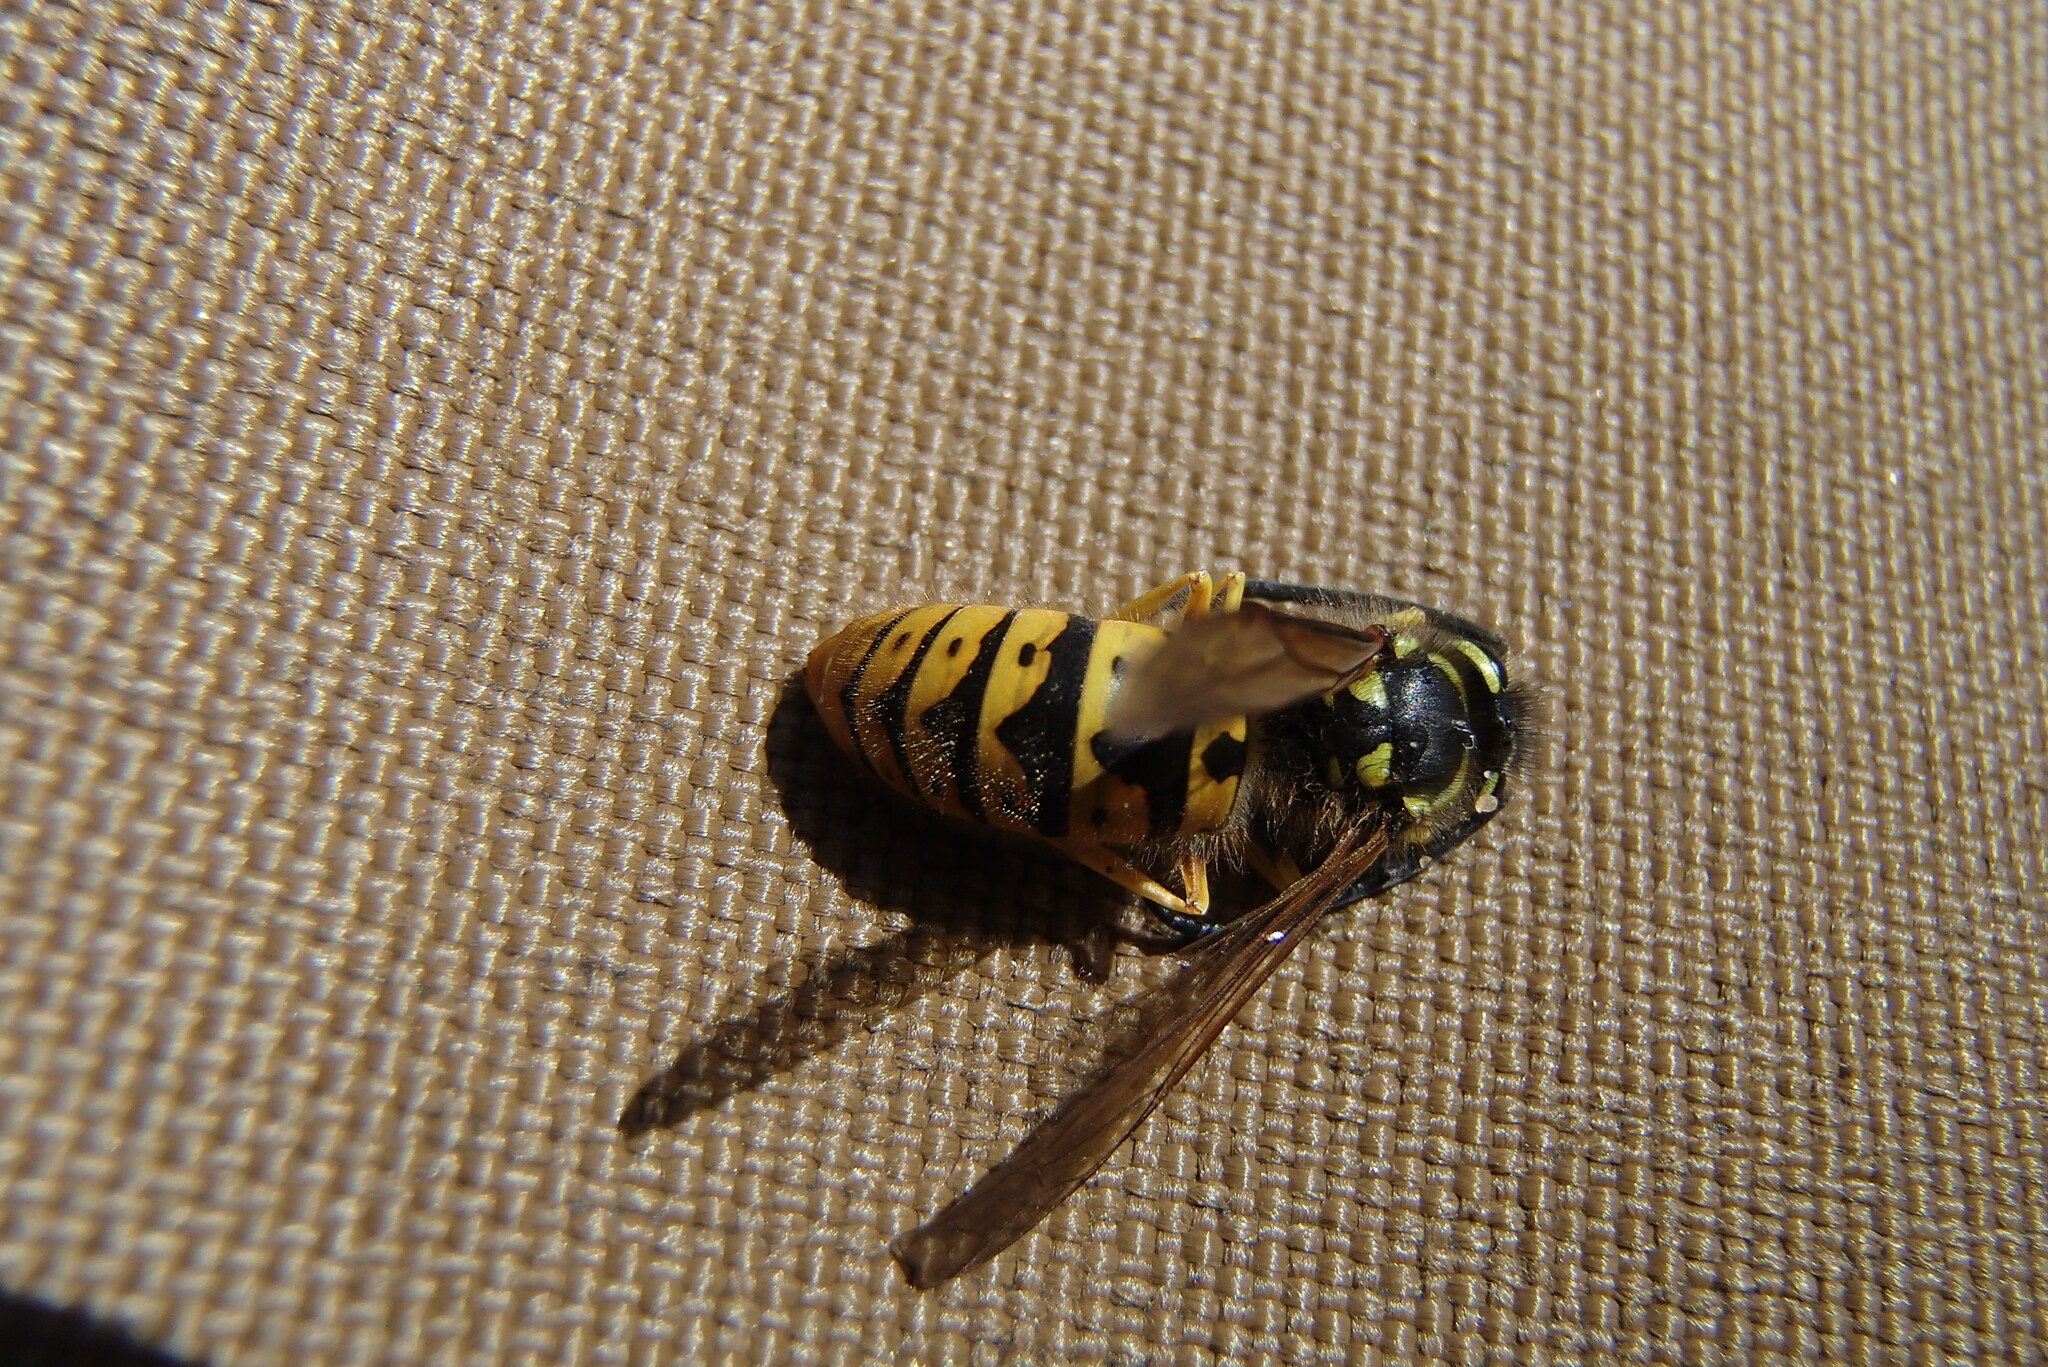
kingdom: Animalia
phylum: Arthropoda
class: Insecta
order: Hymenoptera
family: Vespidae
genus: Vespula
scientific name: Vespula germanica
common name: German wasp
